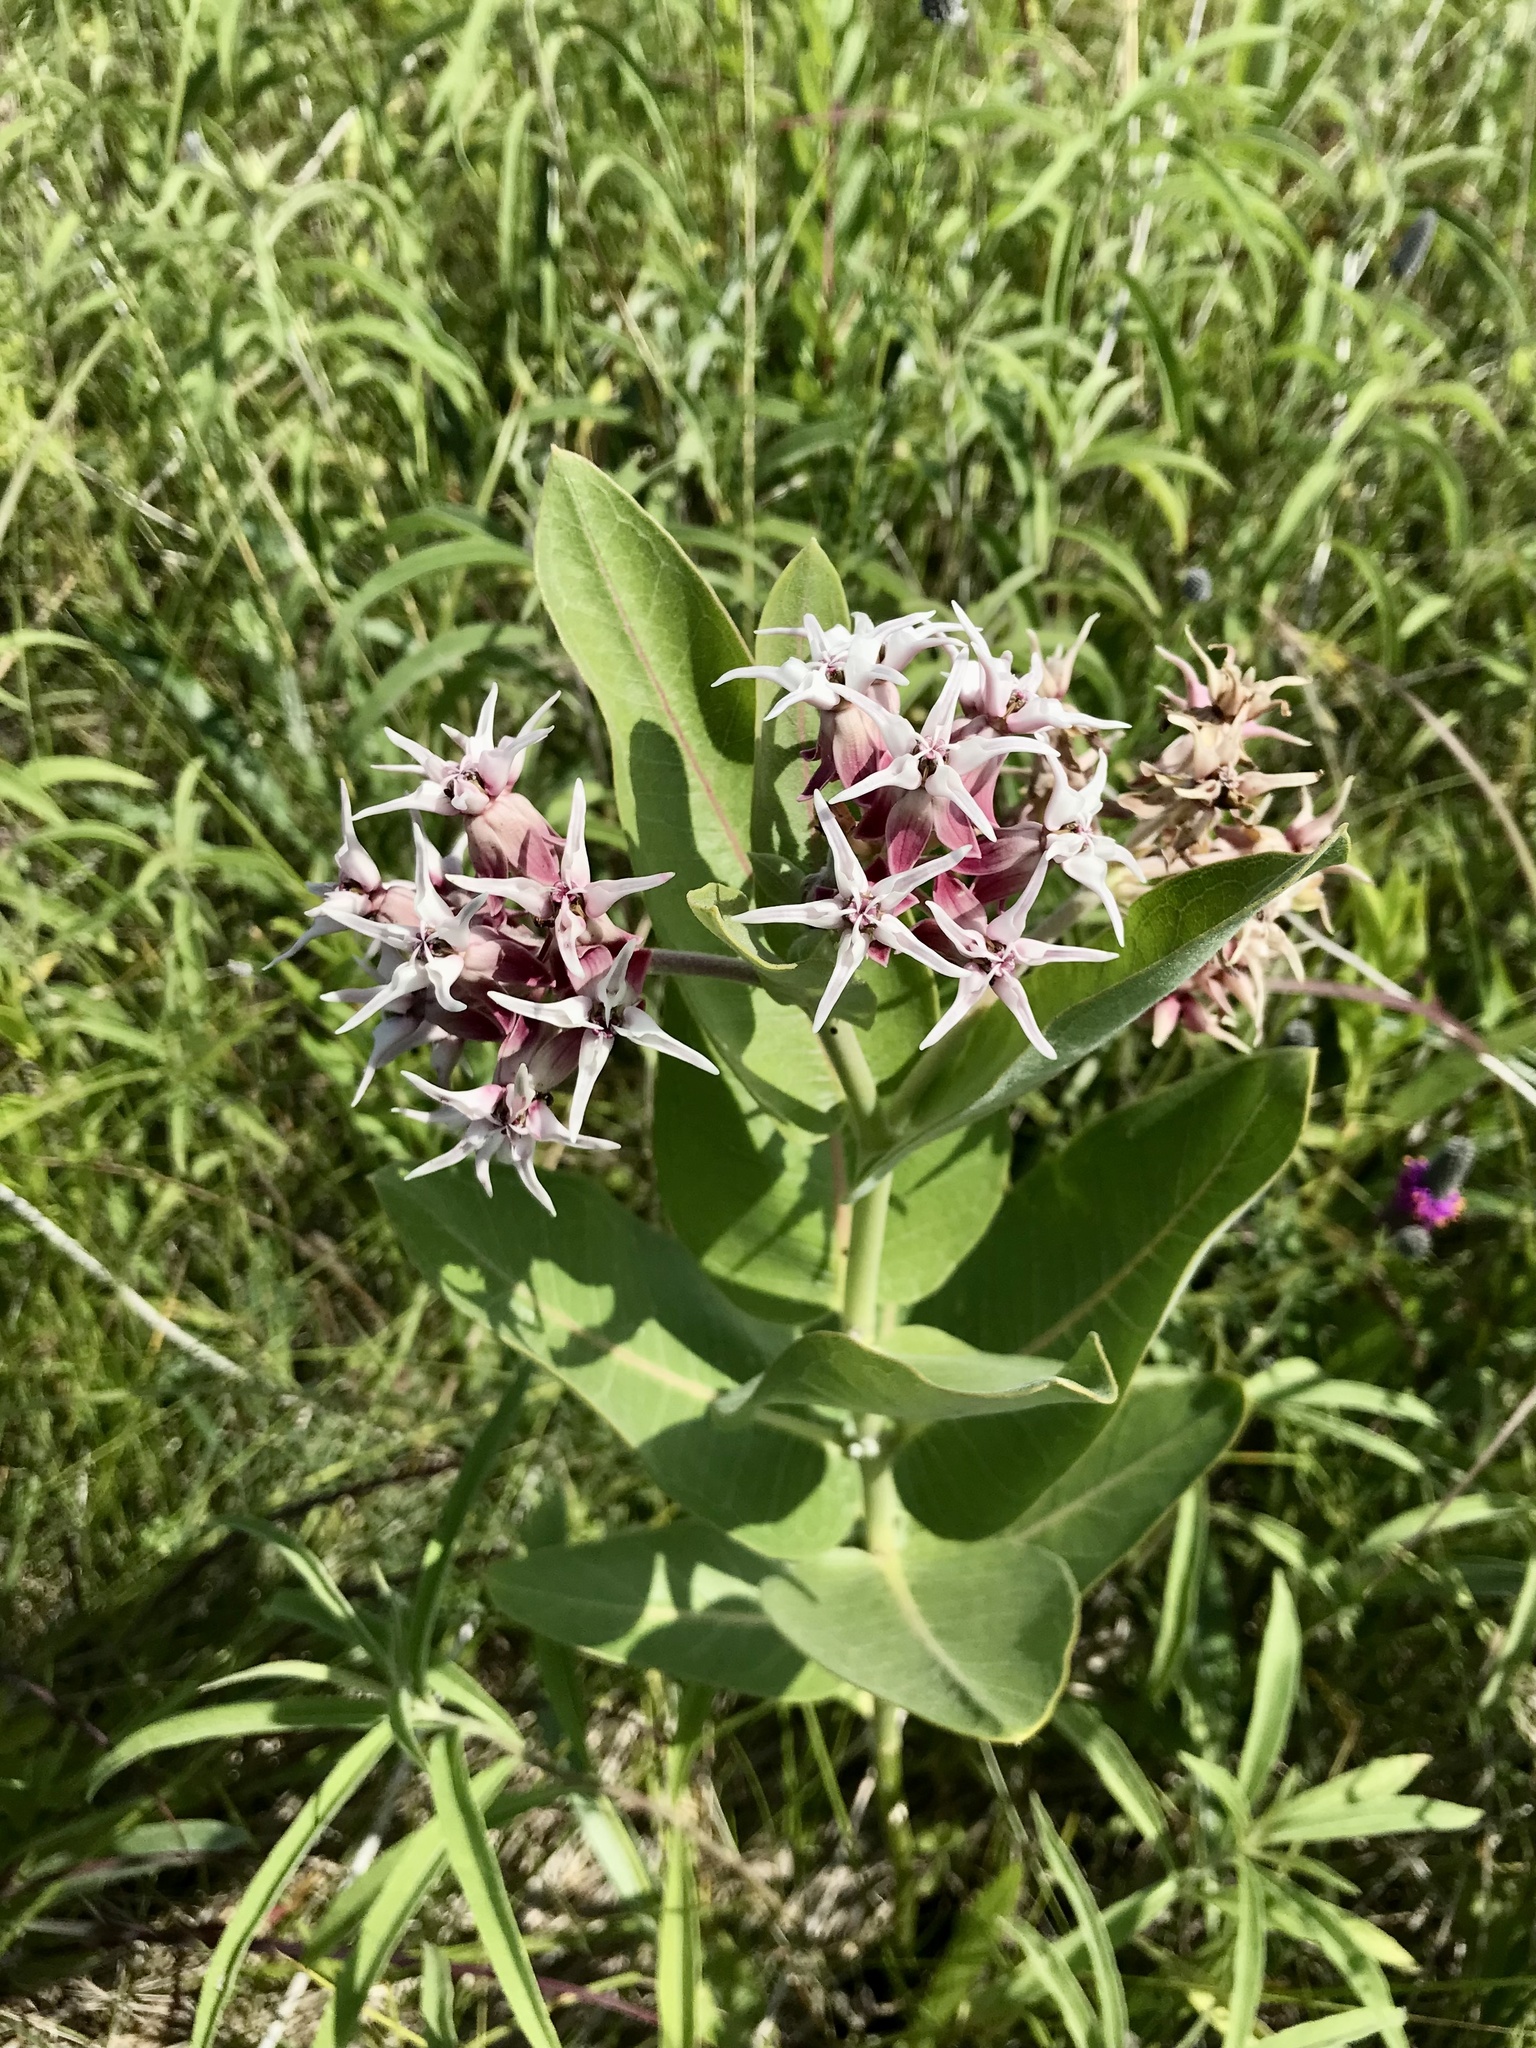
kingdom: Plantae
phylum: Tracheophyta
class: Magnoliopsida
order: Gentianales
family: Apocynaceae
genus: Asclepias
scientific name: Asclepias speciosa
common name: Showy milkweed
